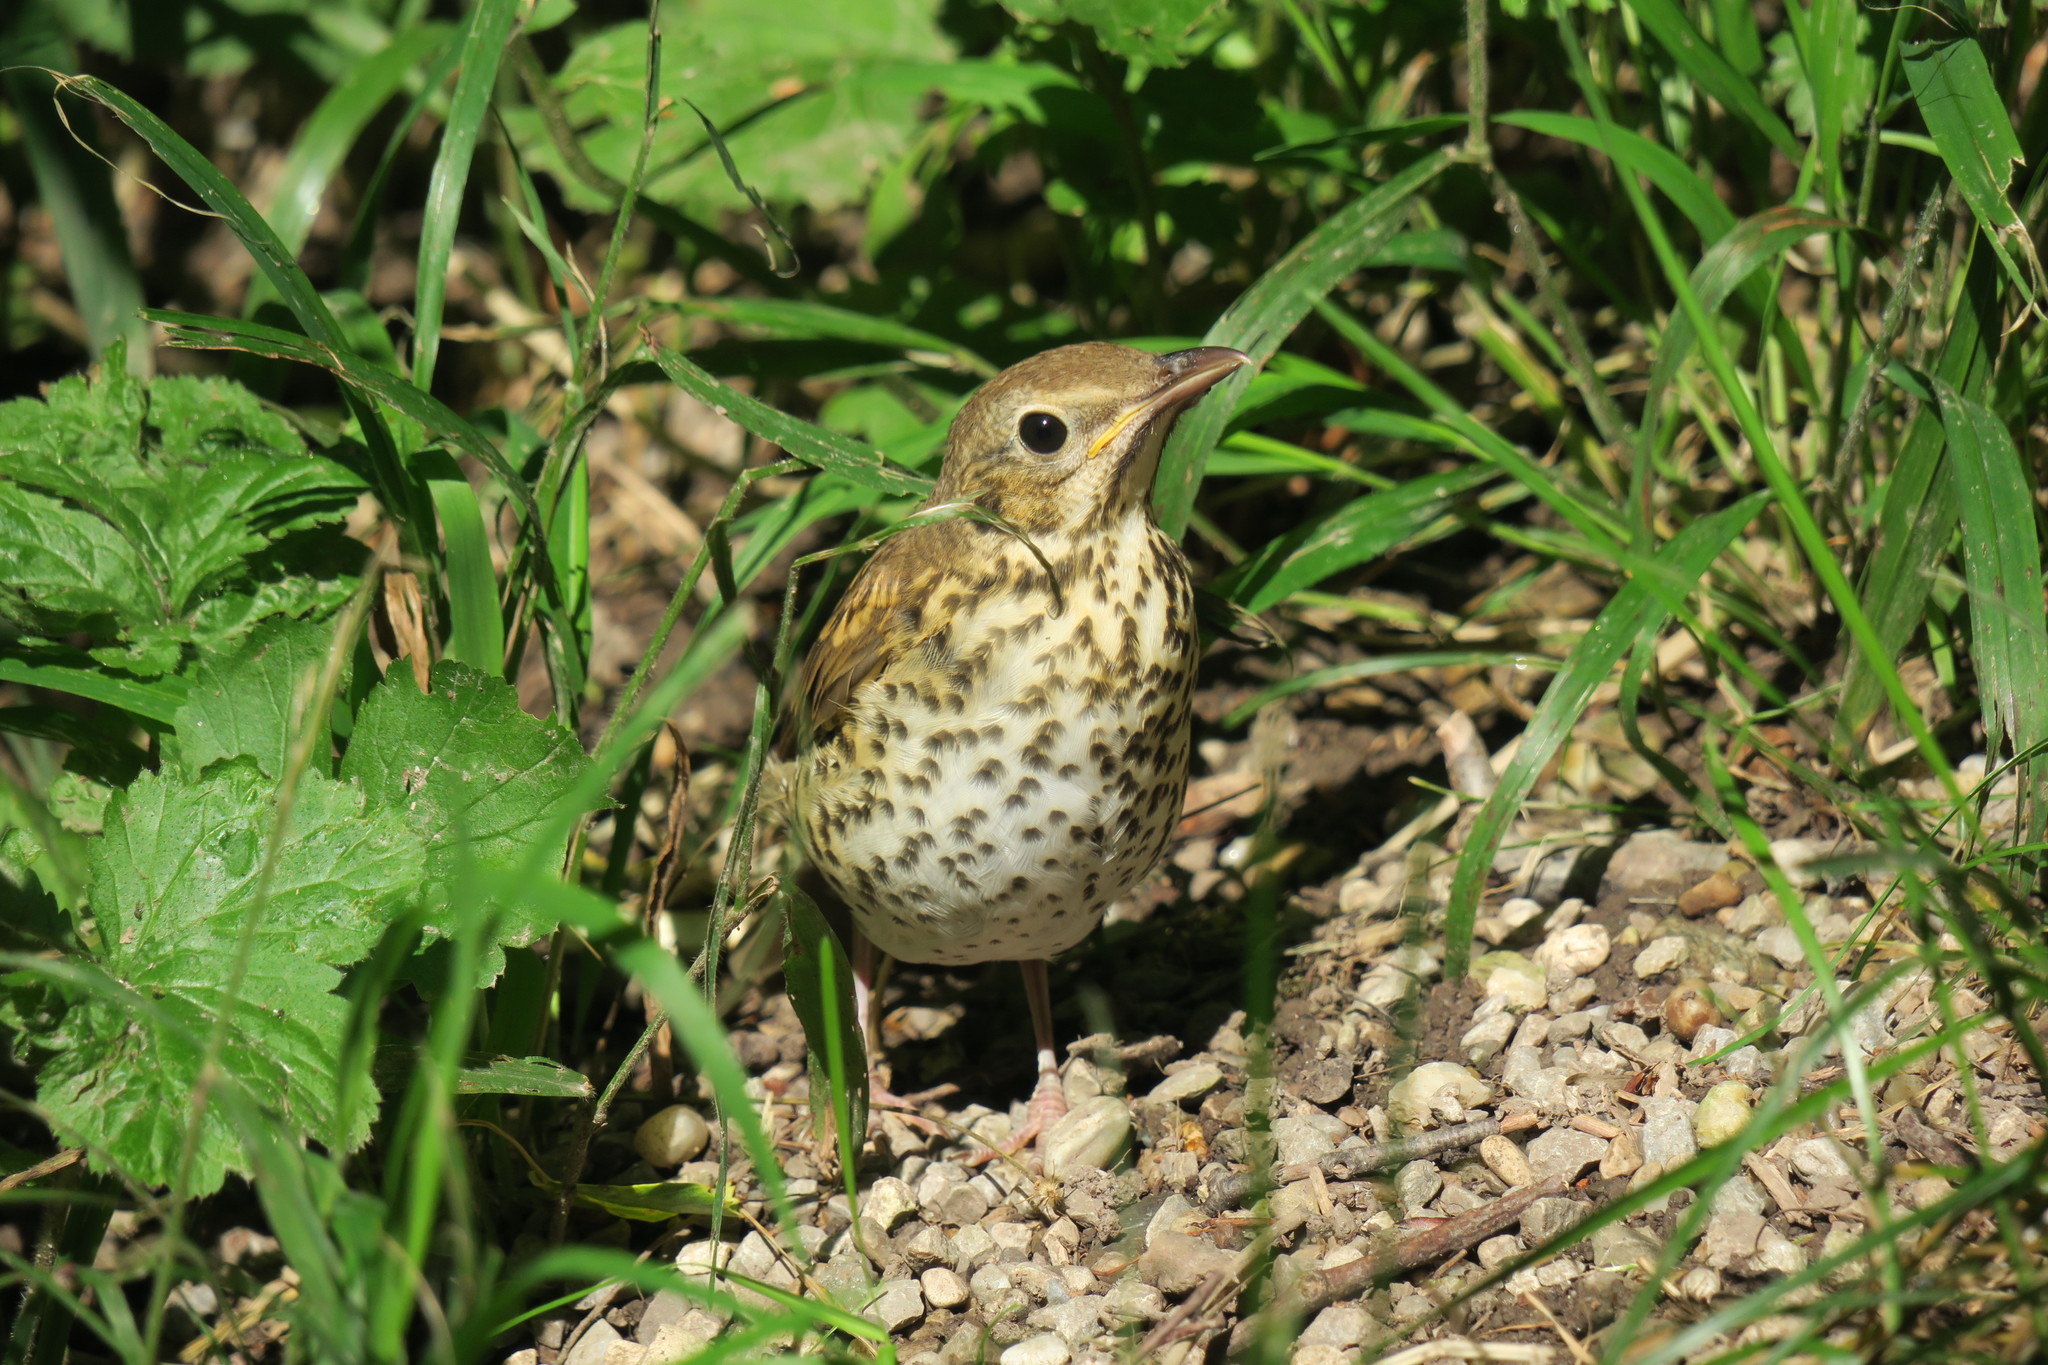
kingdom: Animalia
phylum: Chordata
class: Aves
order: Passeriformes
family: Turdidae
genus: Turdus
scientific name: Turdus philomelos
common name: Song thrush
